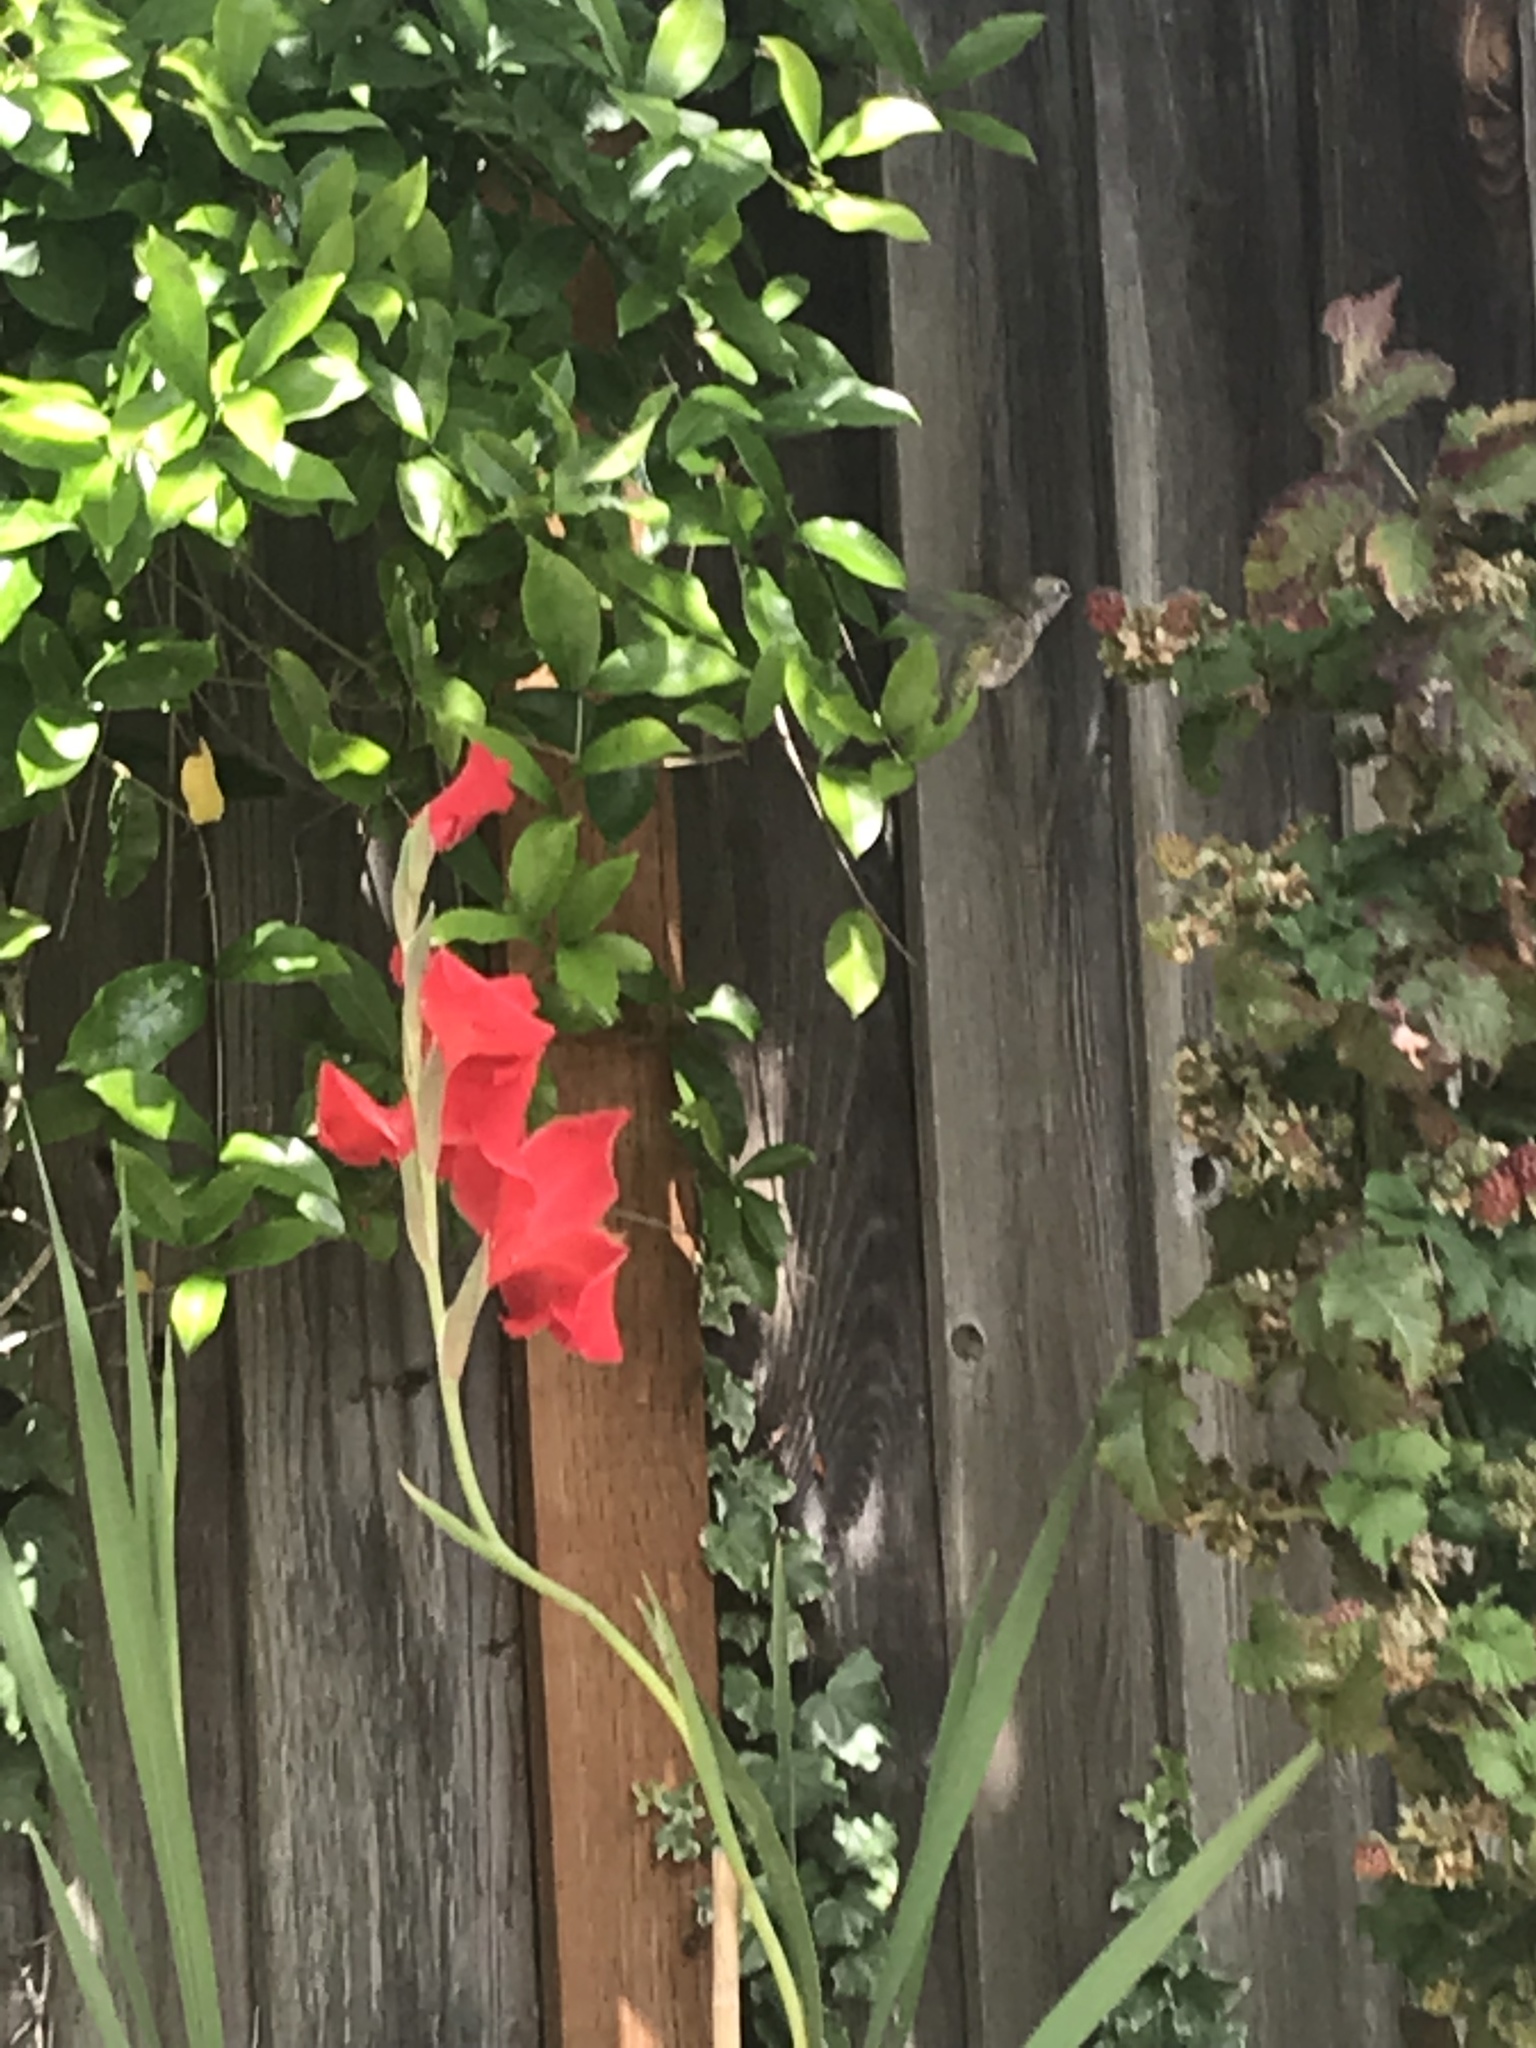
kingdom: Animalia
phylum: Chordata
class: Aves
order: Apodiformes
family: Trochilidae
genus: Calypte
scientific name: Calypte anna
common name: Anna's hummingbird
